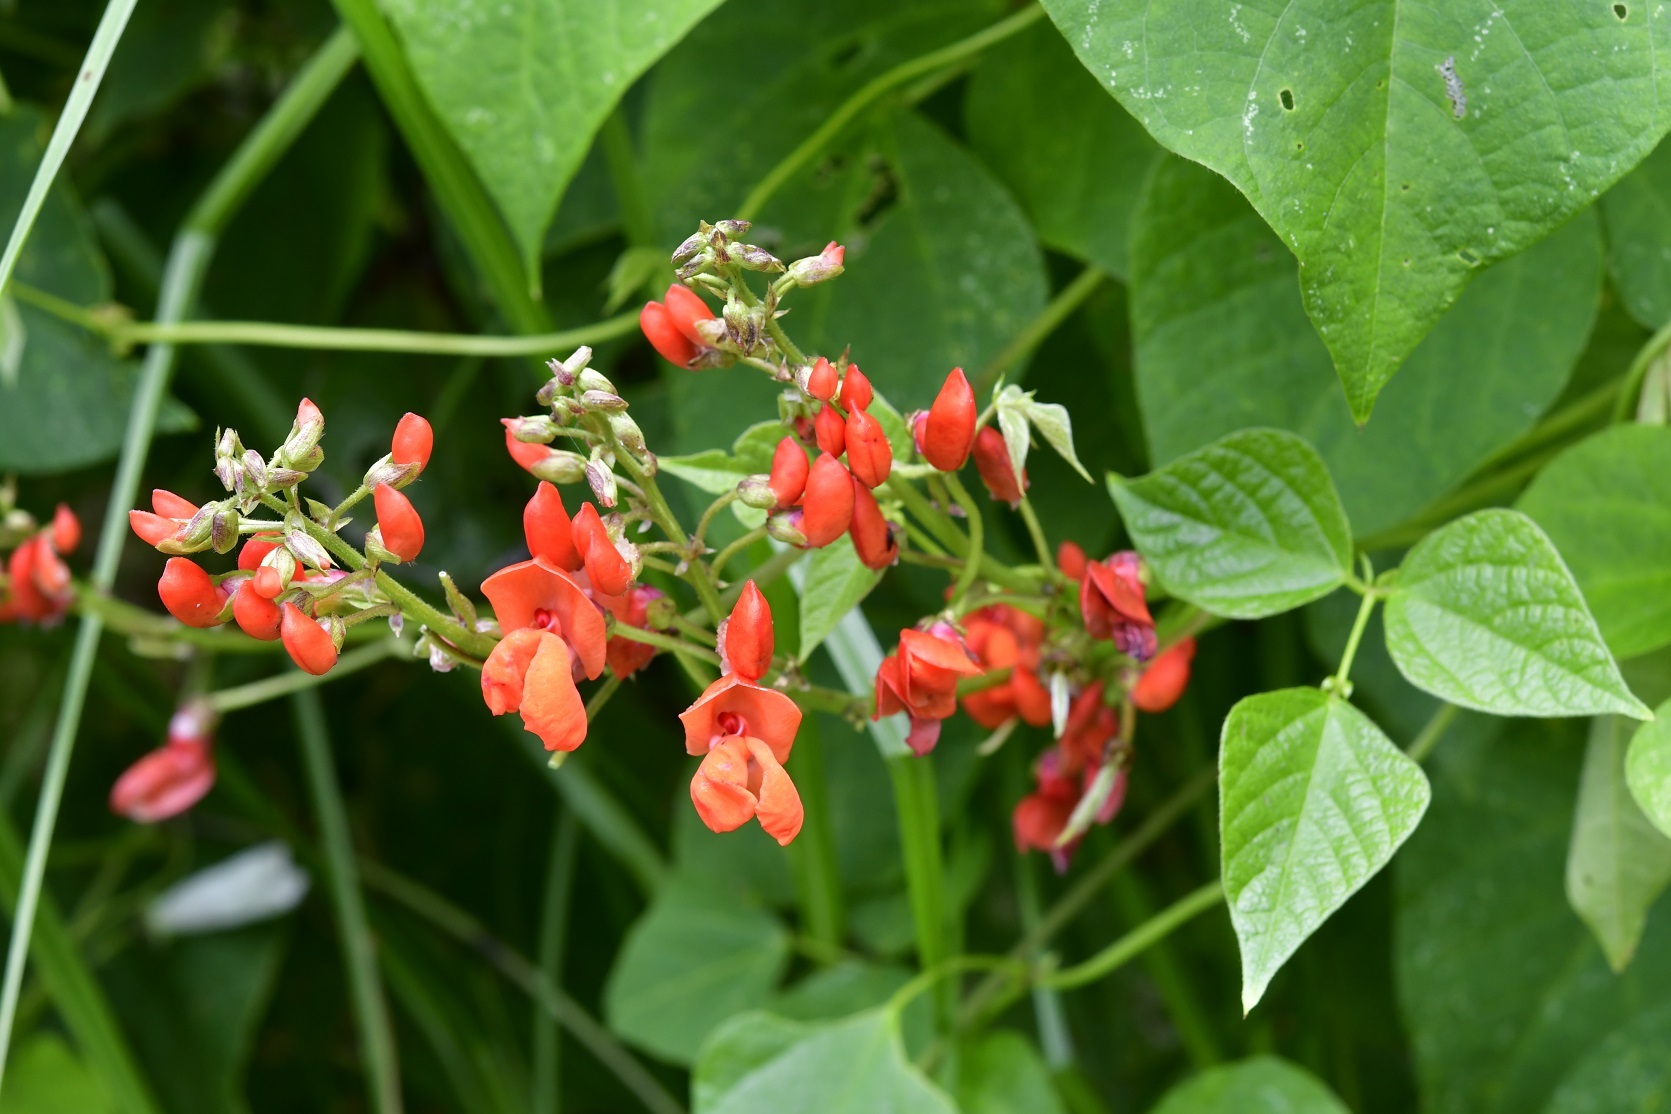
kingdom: Plantae
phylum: Tracheophyta
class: Magnoliopsida
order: Fabales
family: Fabaceae
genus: Phaseolus
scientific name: Phaseolus coccineus
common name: Runner bean
